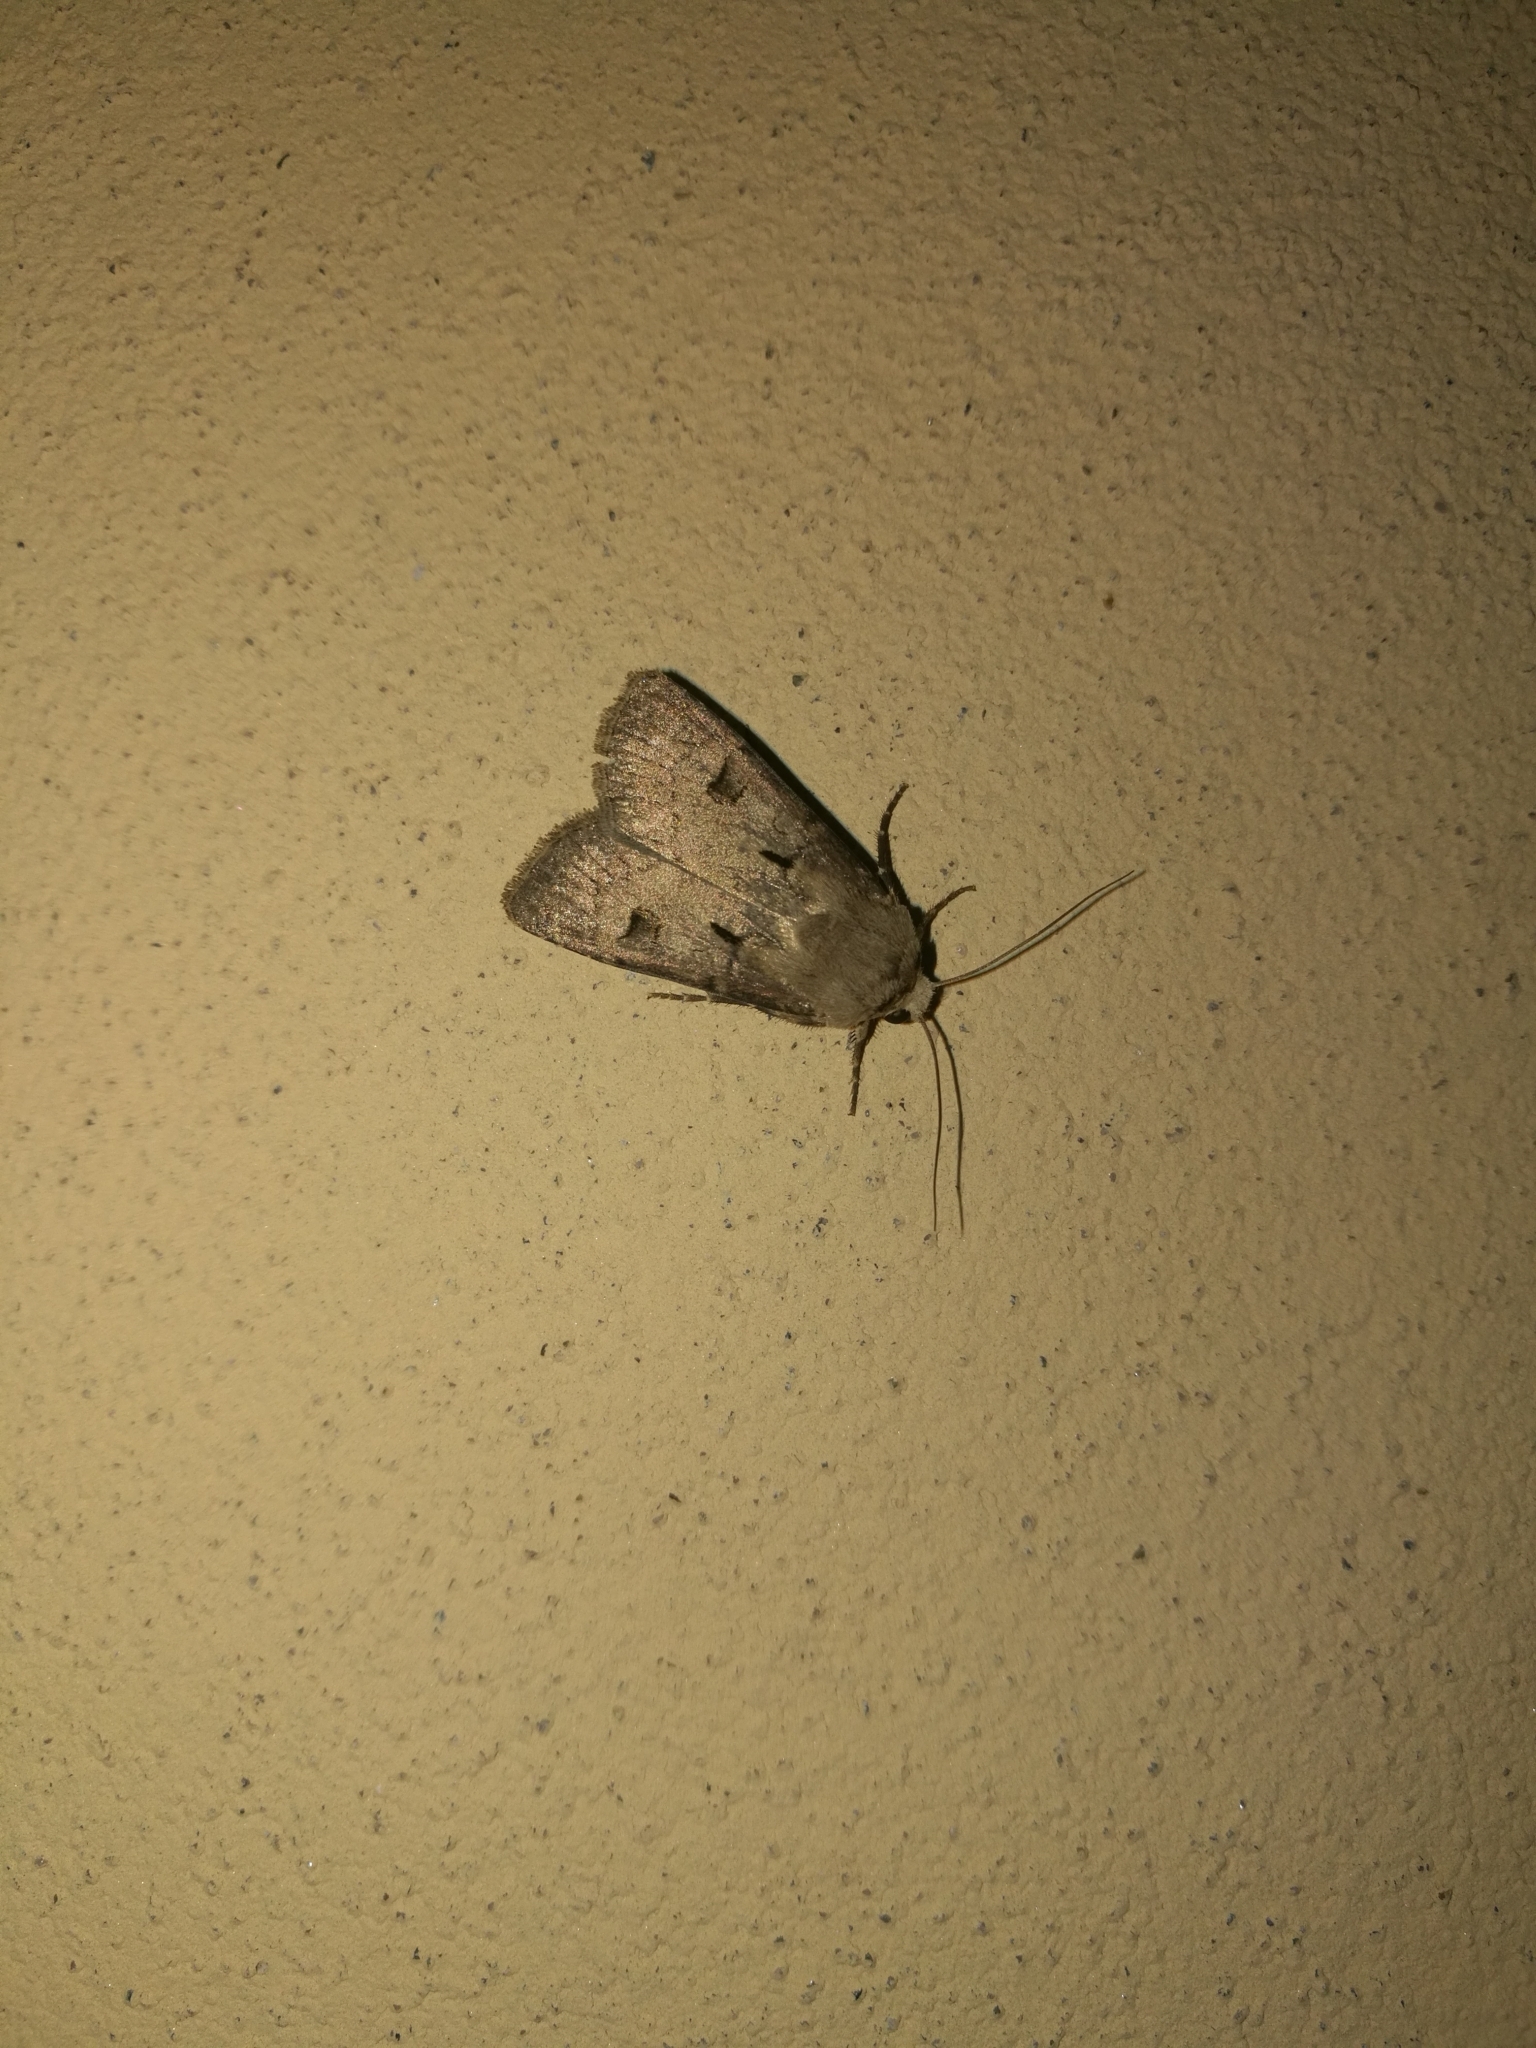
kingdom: Animalia
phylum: Arthropoda
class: Insecta
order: Lepidoptera
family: Noctuidae
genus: Agrotis
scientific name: Agrotis exclamationis
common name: Heart and dart
